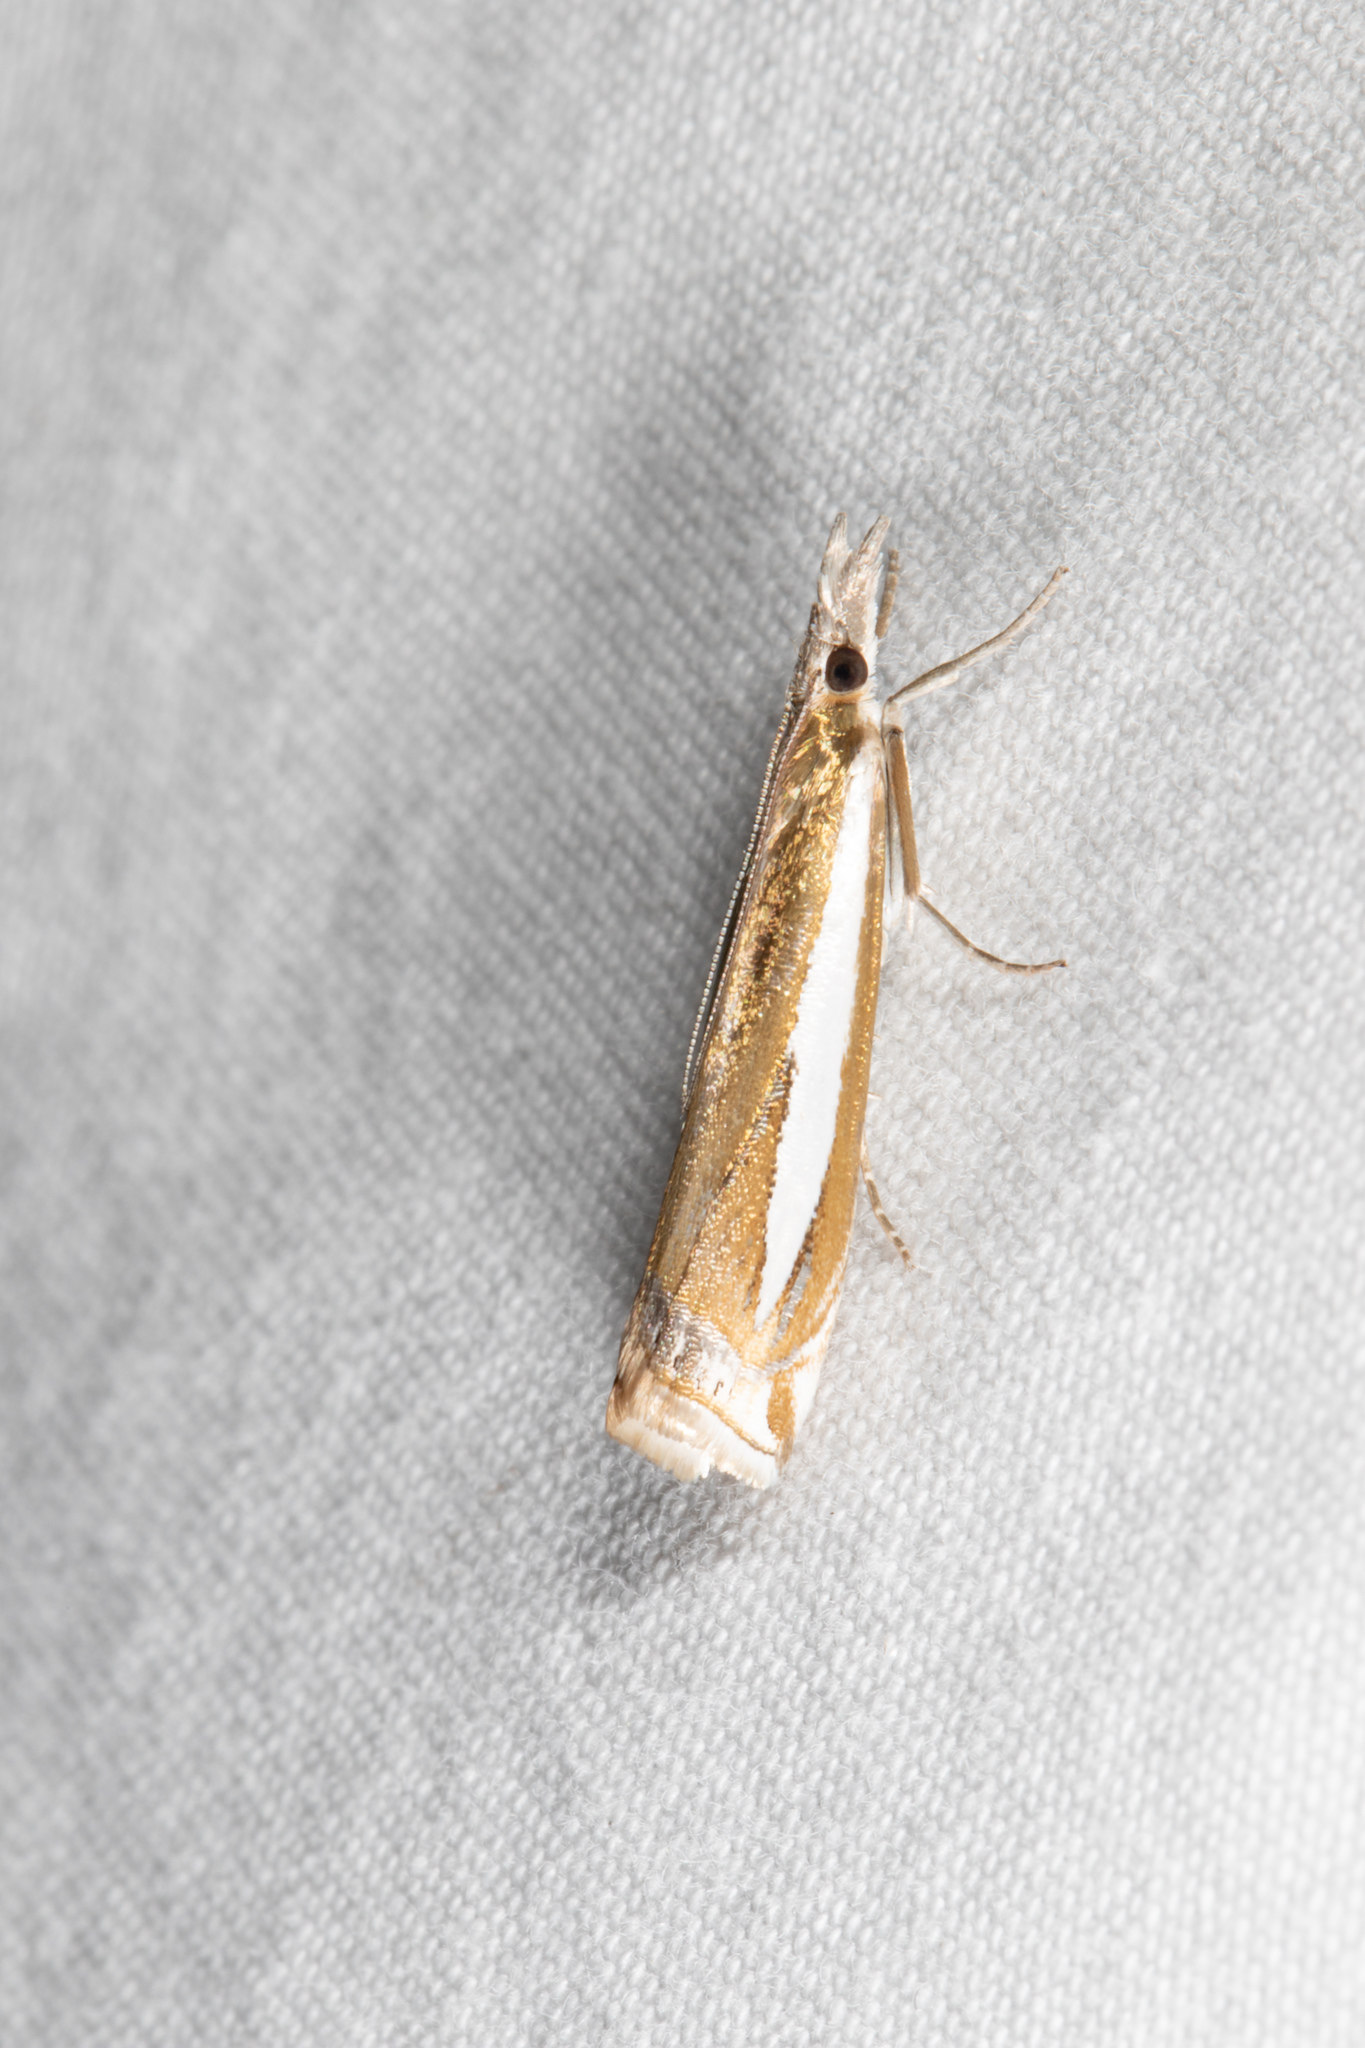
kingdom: Animalia
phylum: Arthropoda
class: Insecta
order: Lepidoptera
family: Crambidae
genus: Crambus
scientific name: Crambus praefectellus
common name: Common grass-veneer
